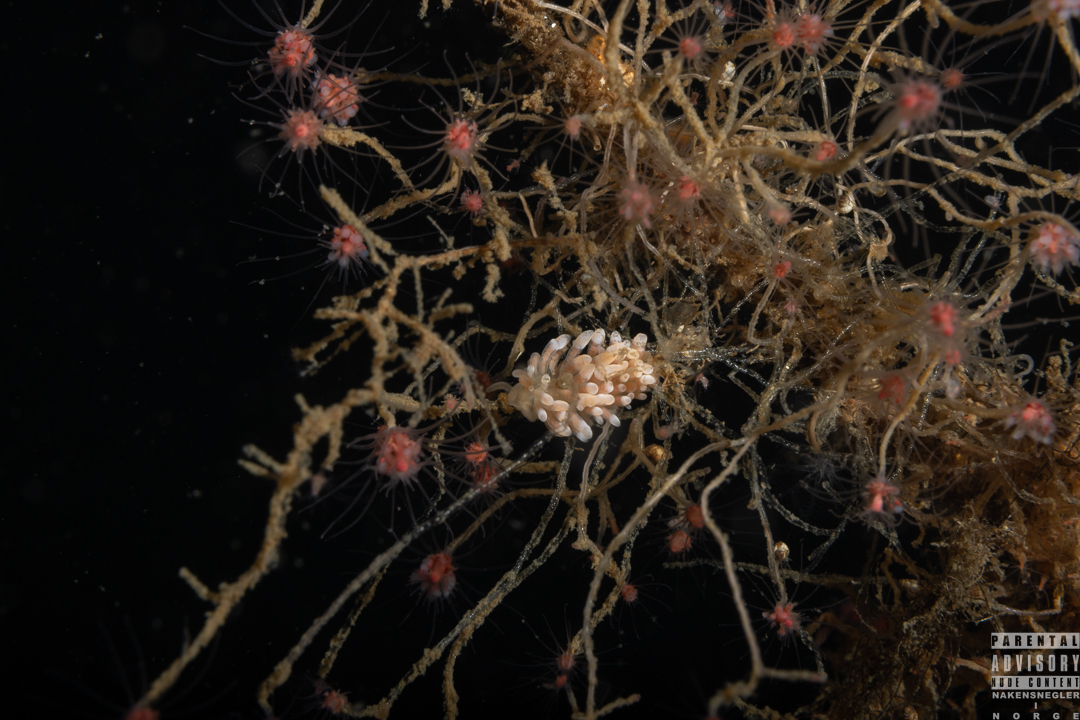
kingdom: Animalia
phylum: Mollusca
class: Gastropoda
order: Nudibranchia
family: Trinchesiidae
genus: Catriona
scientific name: Catriona aurantia
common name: Corange-tip cuthona
